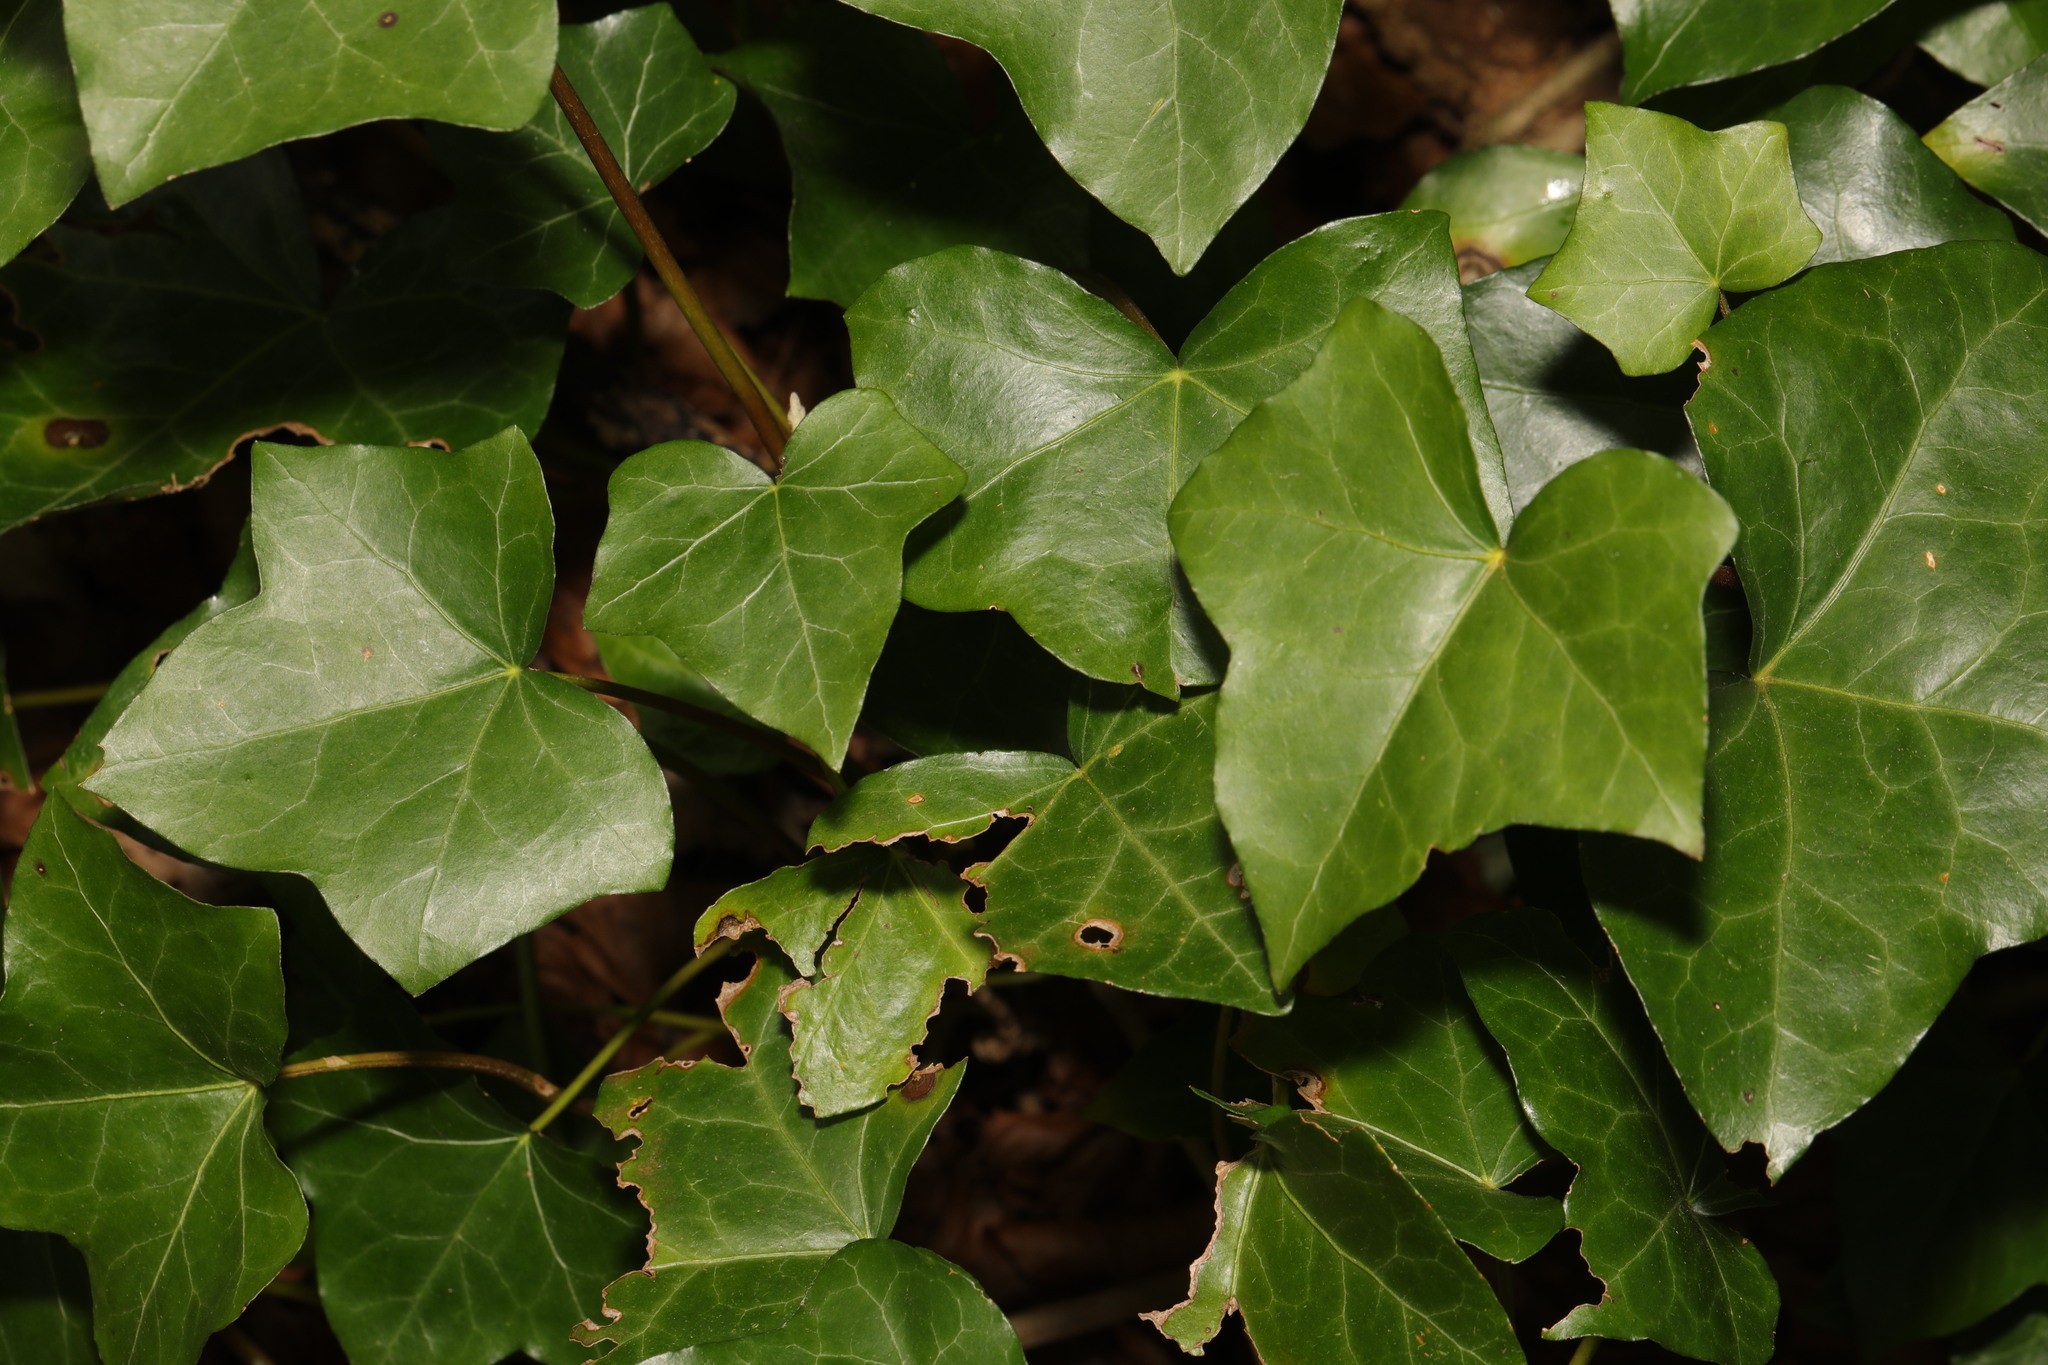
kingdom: Plantae
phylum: Tracheophyta
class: Magnoliopsida
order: Apiales
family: Araliaceae
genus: Hedera
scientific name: Hedera helix
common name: Ivy
